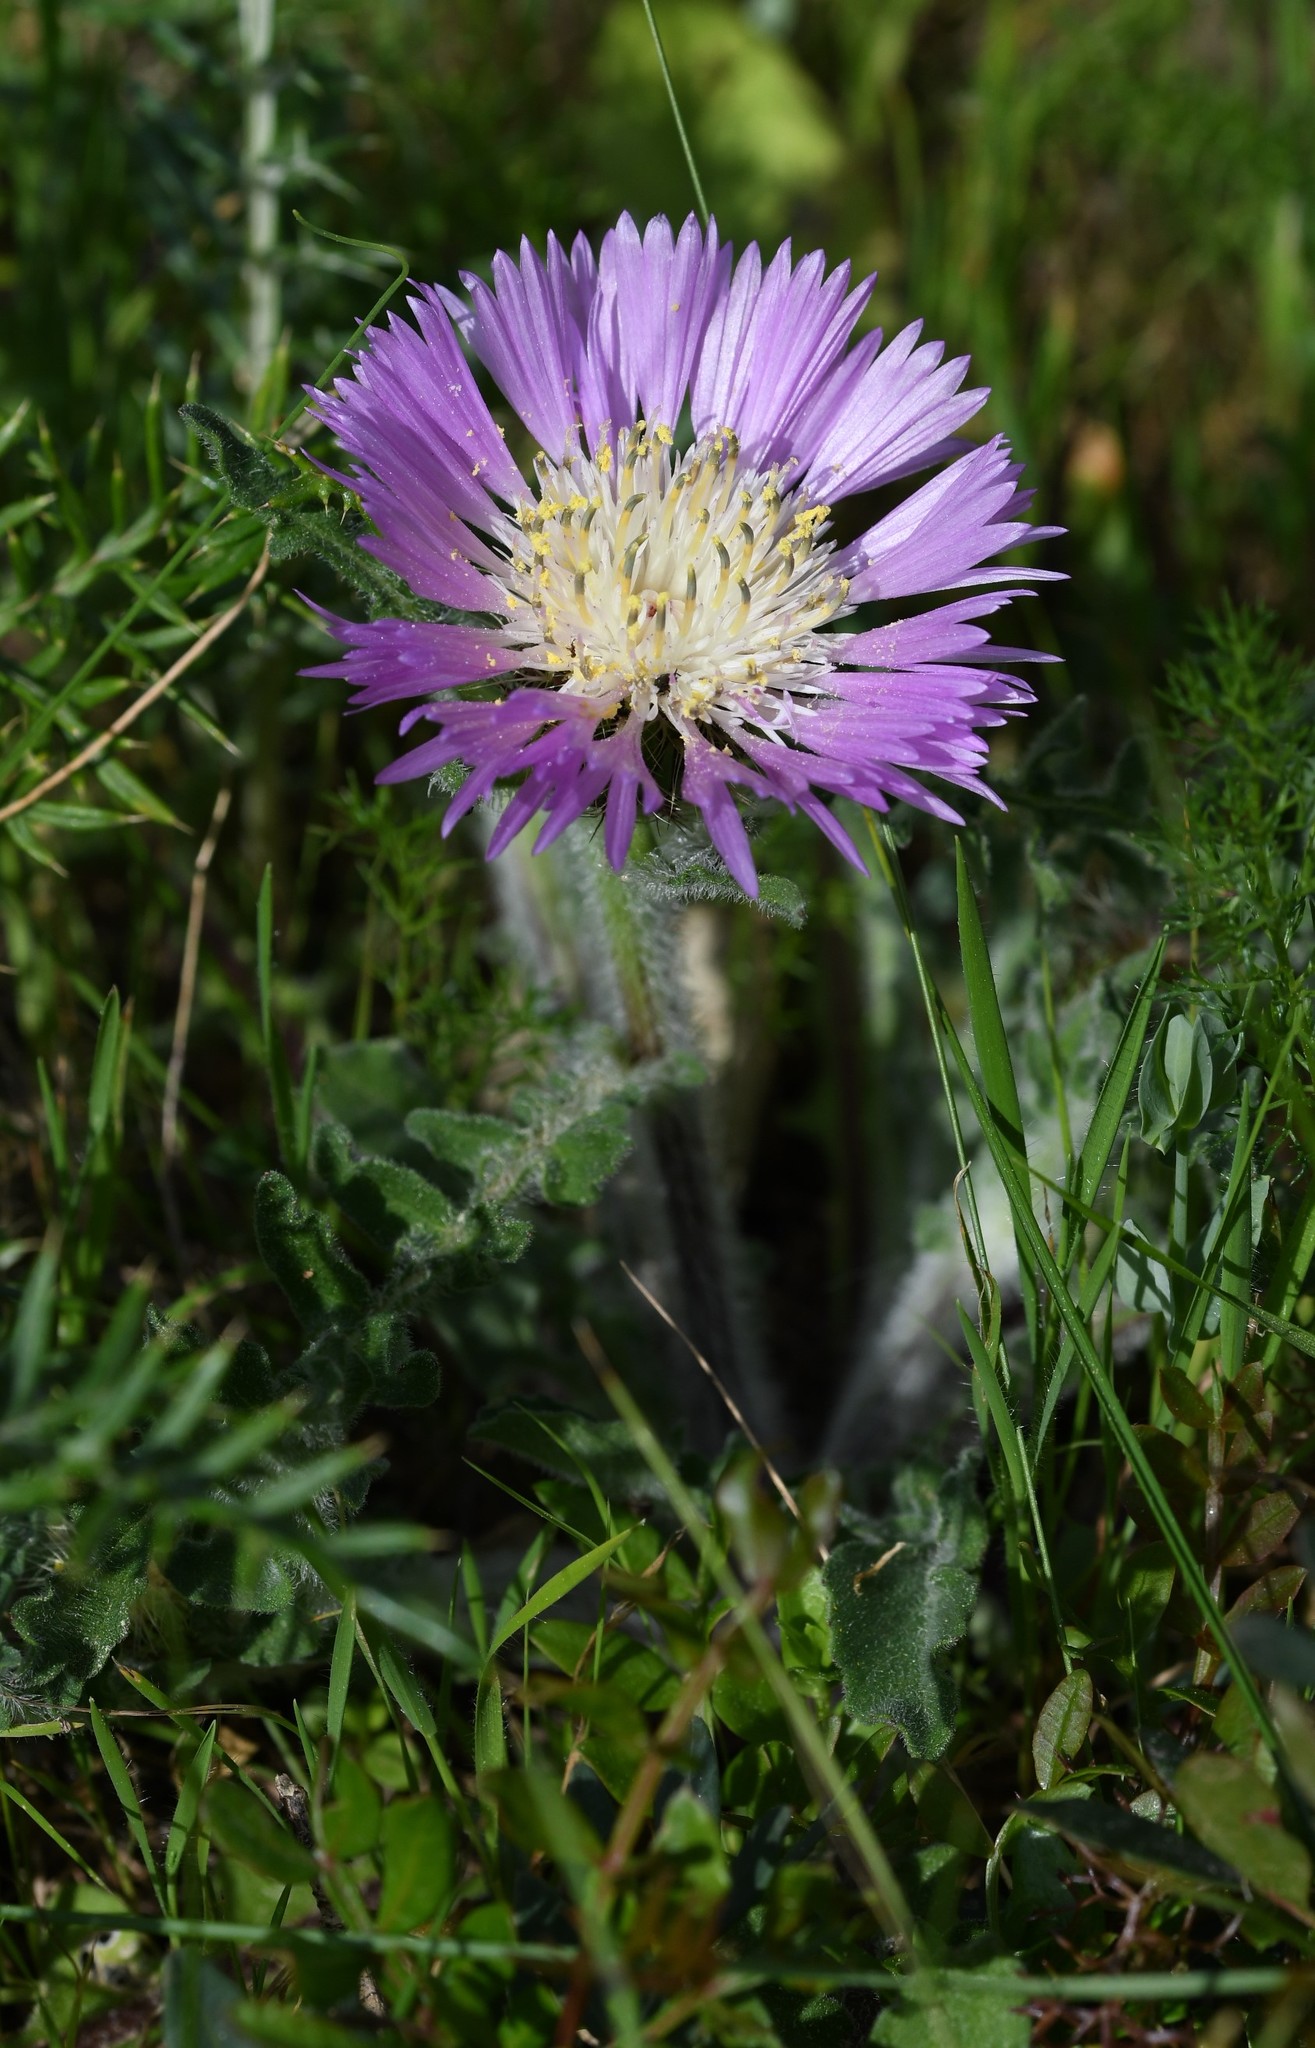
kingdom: Plantae
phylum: Tracheophyta
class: Magnoliopsida
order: Asterales
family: Asteraceae
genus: Centaurea
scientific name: Centaurea pullata
